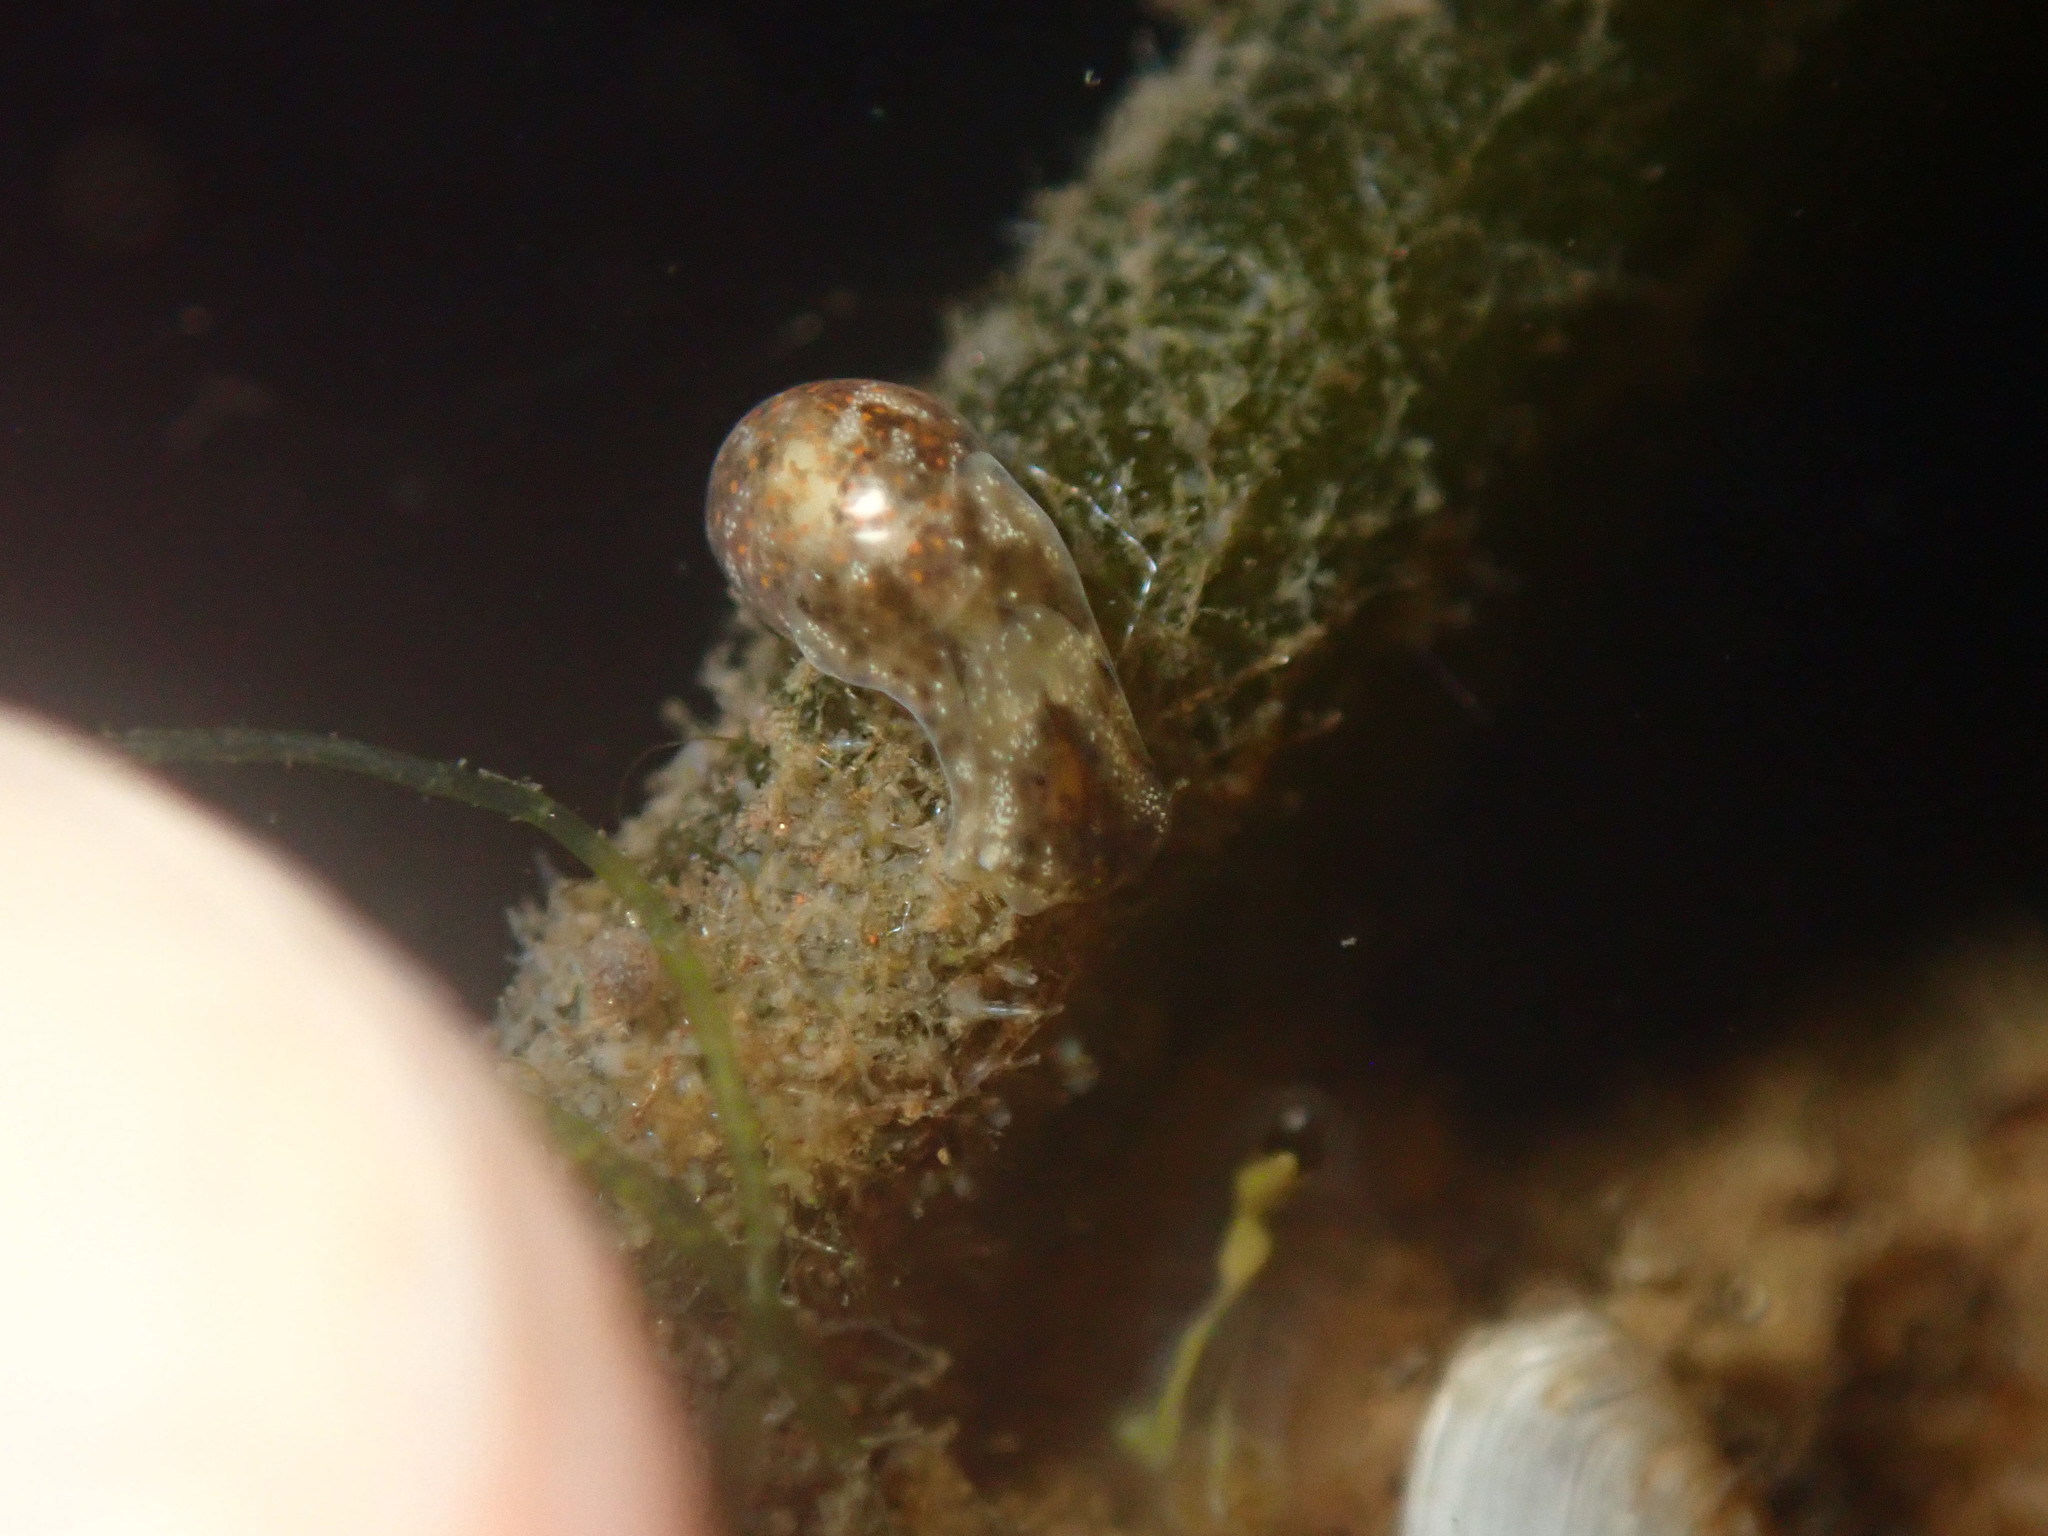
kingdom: Animalia
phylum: Mollusca
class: Gastropoda
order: Cephalaspidea
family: Haminoeidae
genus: Haloa
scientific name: Haloa japonica
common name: Japanese bubble snail
